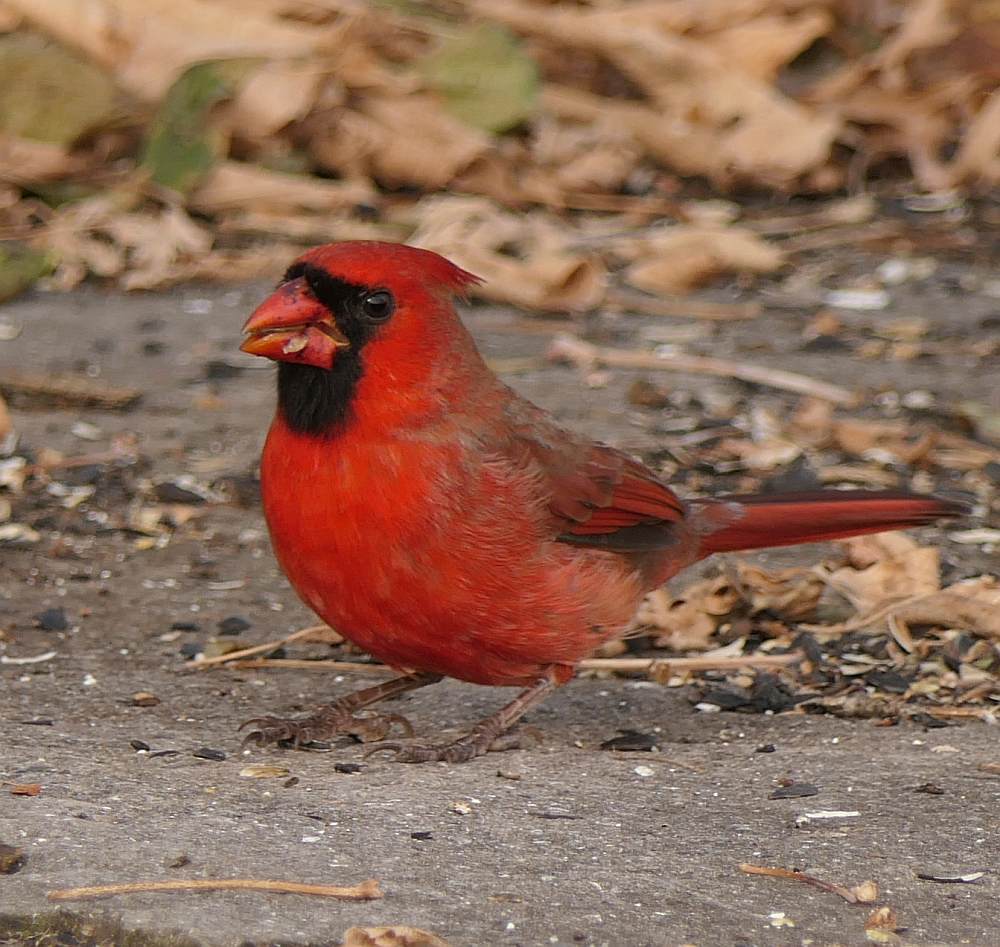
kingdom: Animalia
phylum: Chordata
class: Aves
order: Passeriformes
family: Cardinalidae
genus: Cardinalis
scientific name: Cardinalis cardinalis
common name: Northern cardinal
